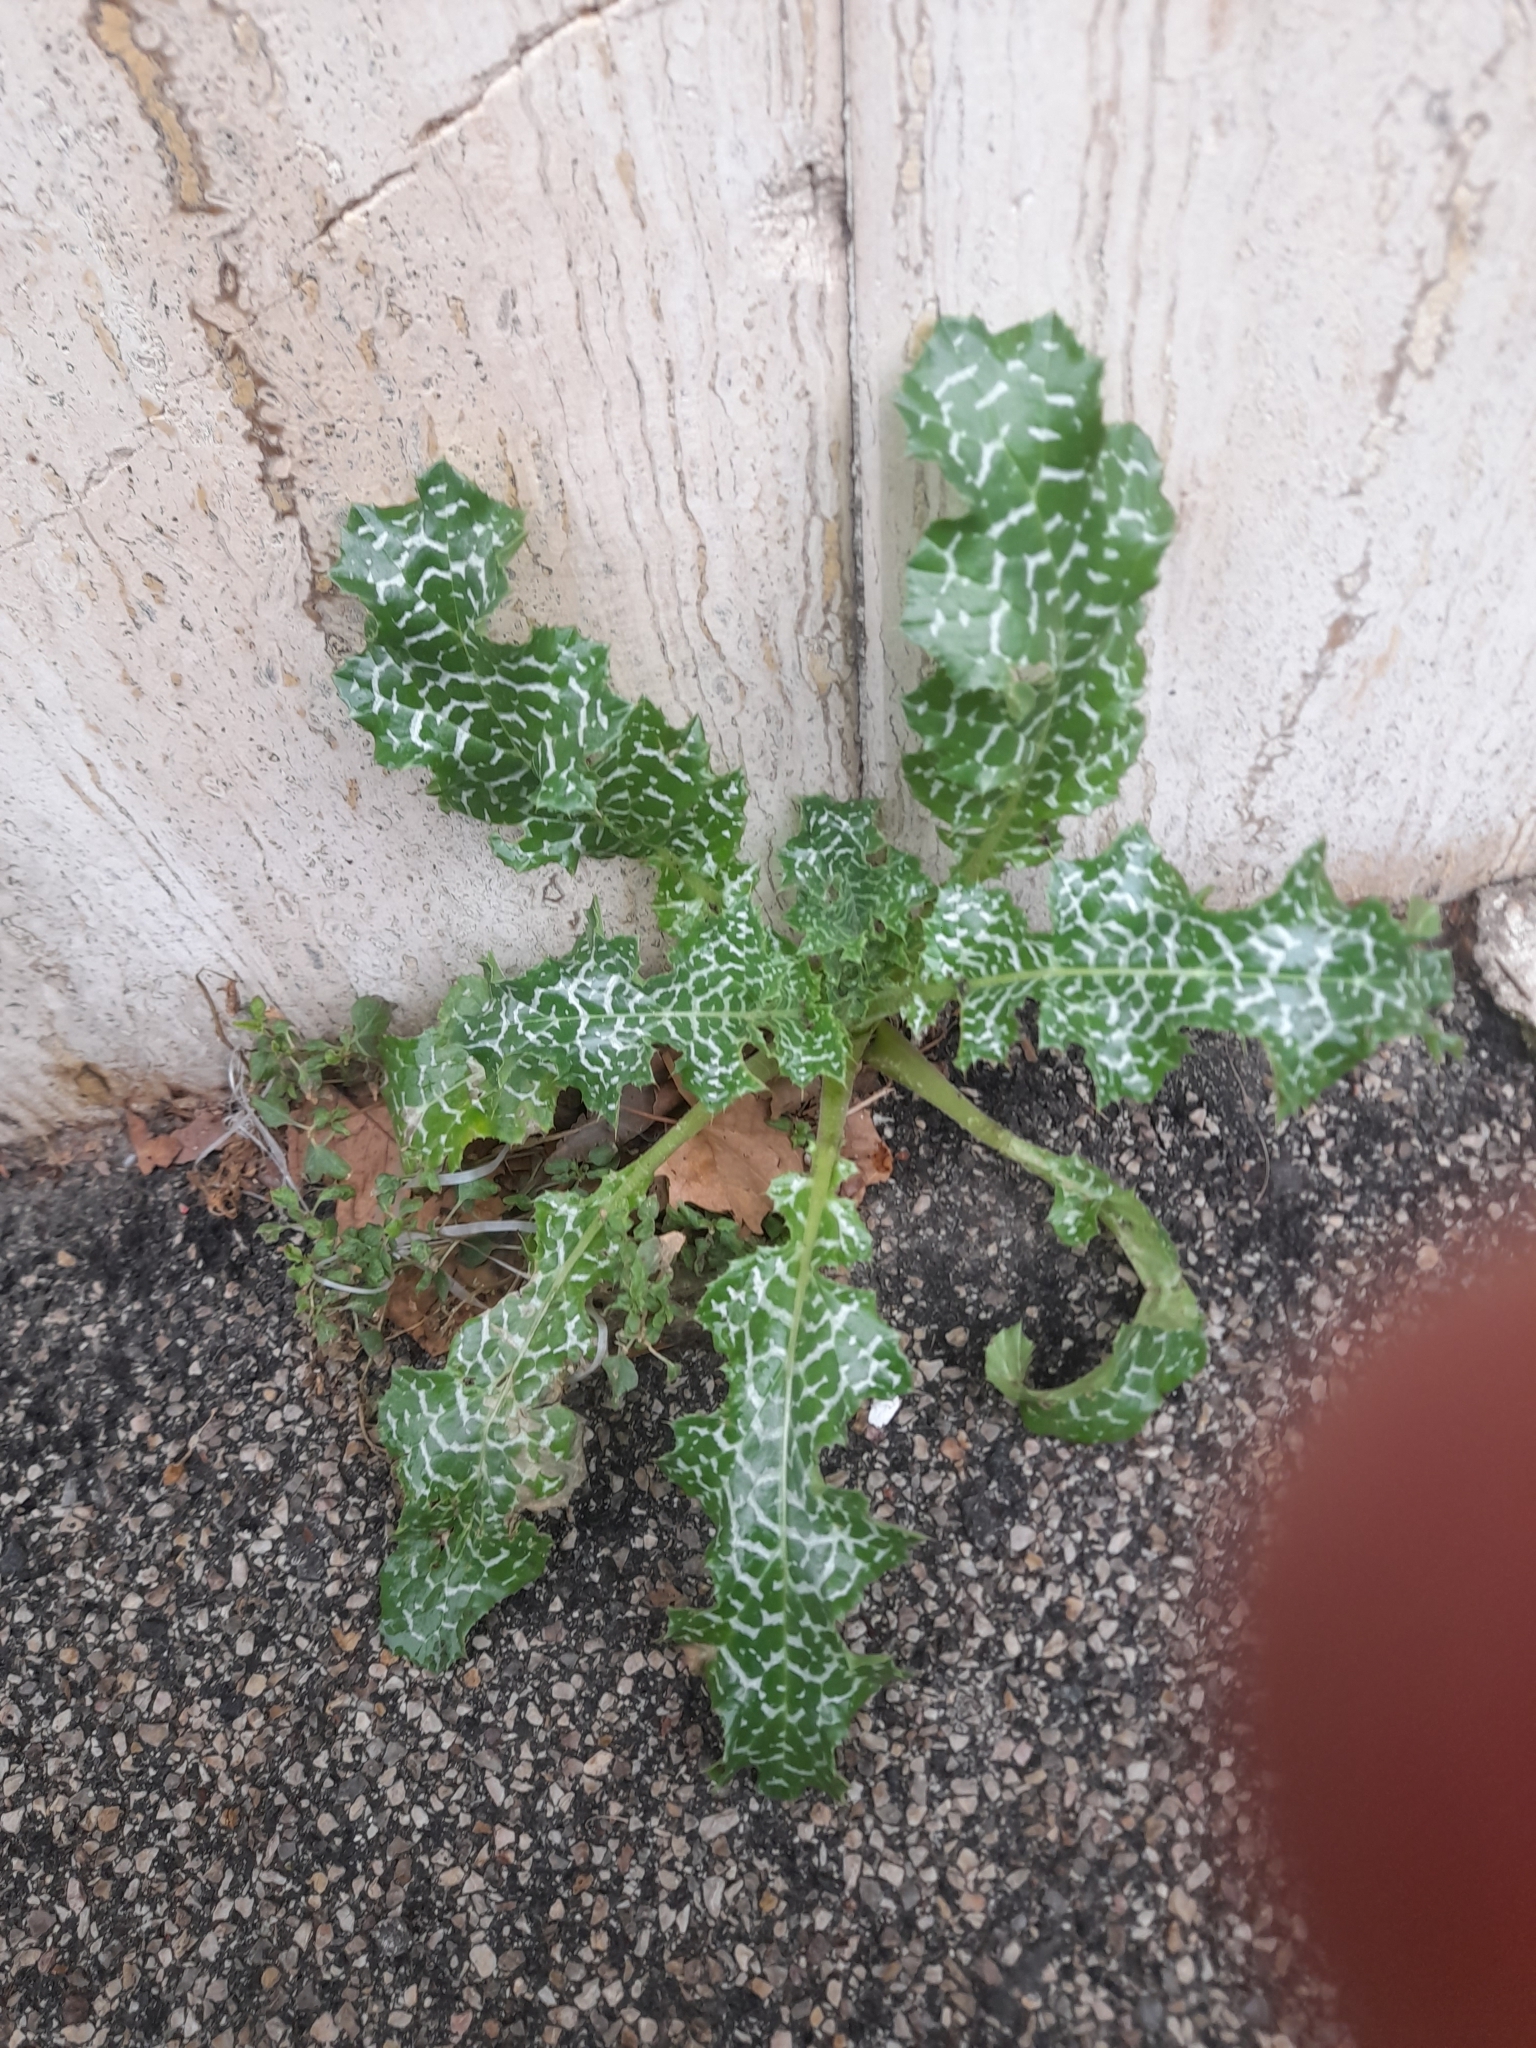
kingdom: Plantae
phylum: Tracheophyta
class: Magnoliopsida
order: Asterales
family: Asteraceae
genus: Silybum
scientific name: Silybum marianum
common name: Milk thistle
